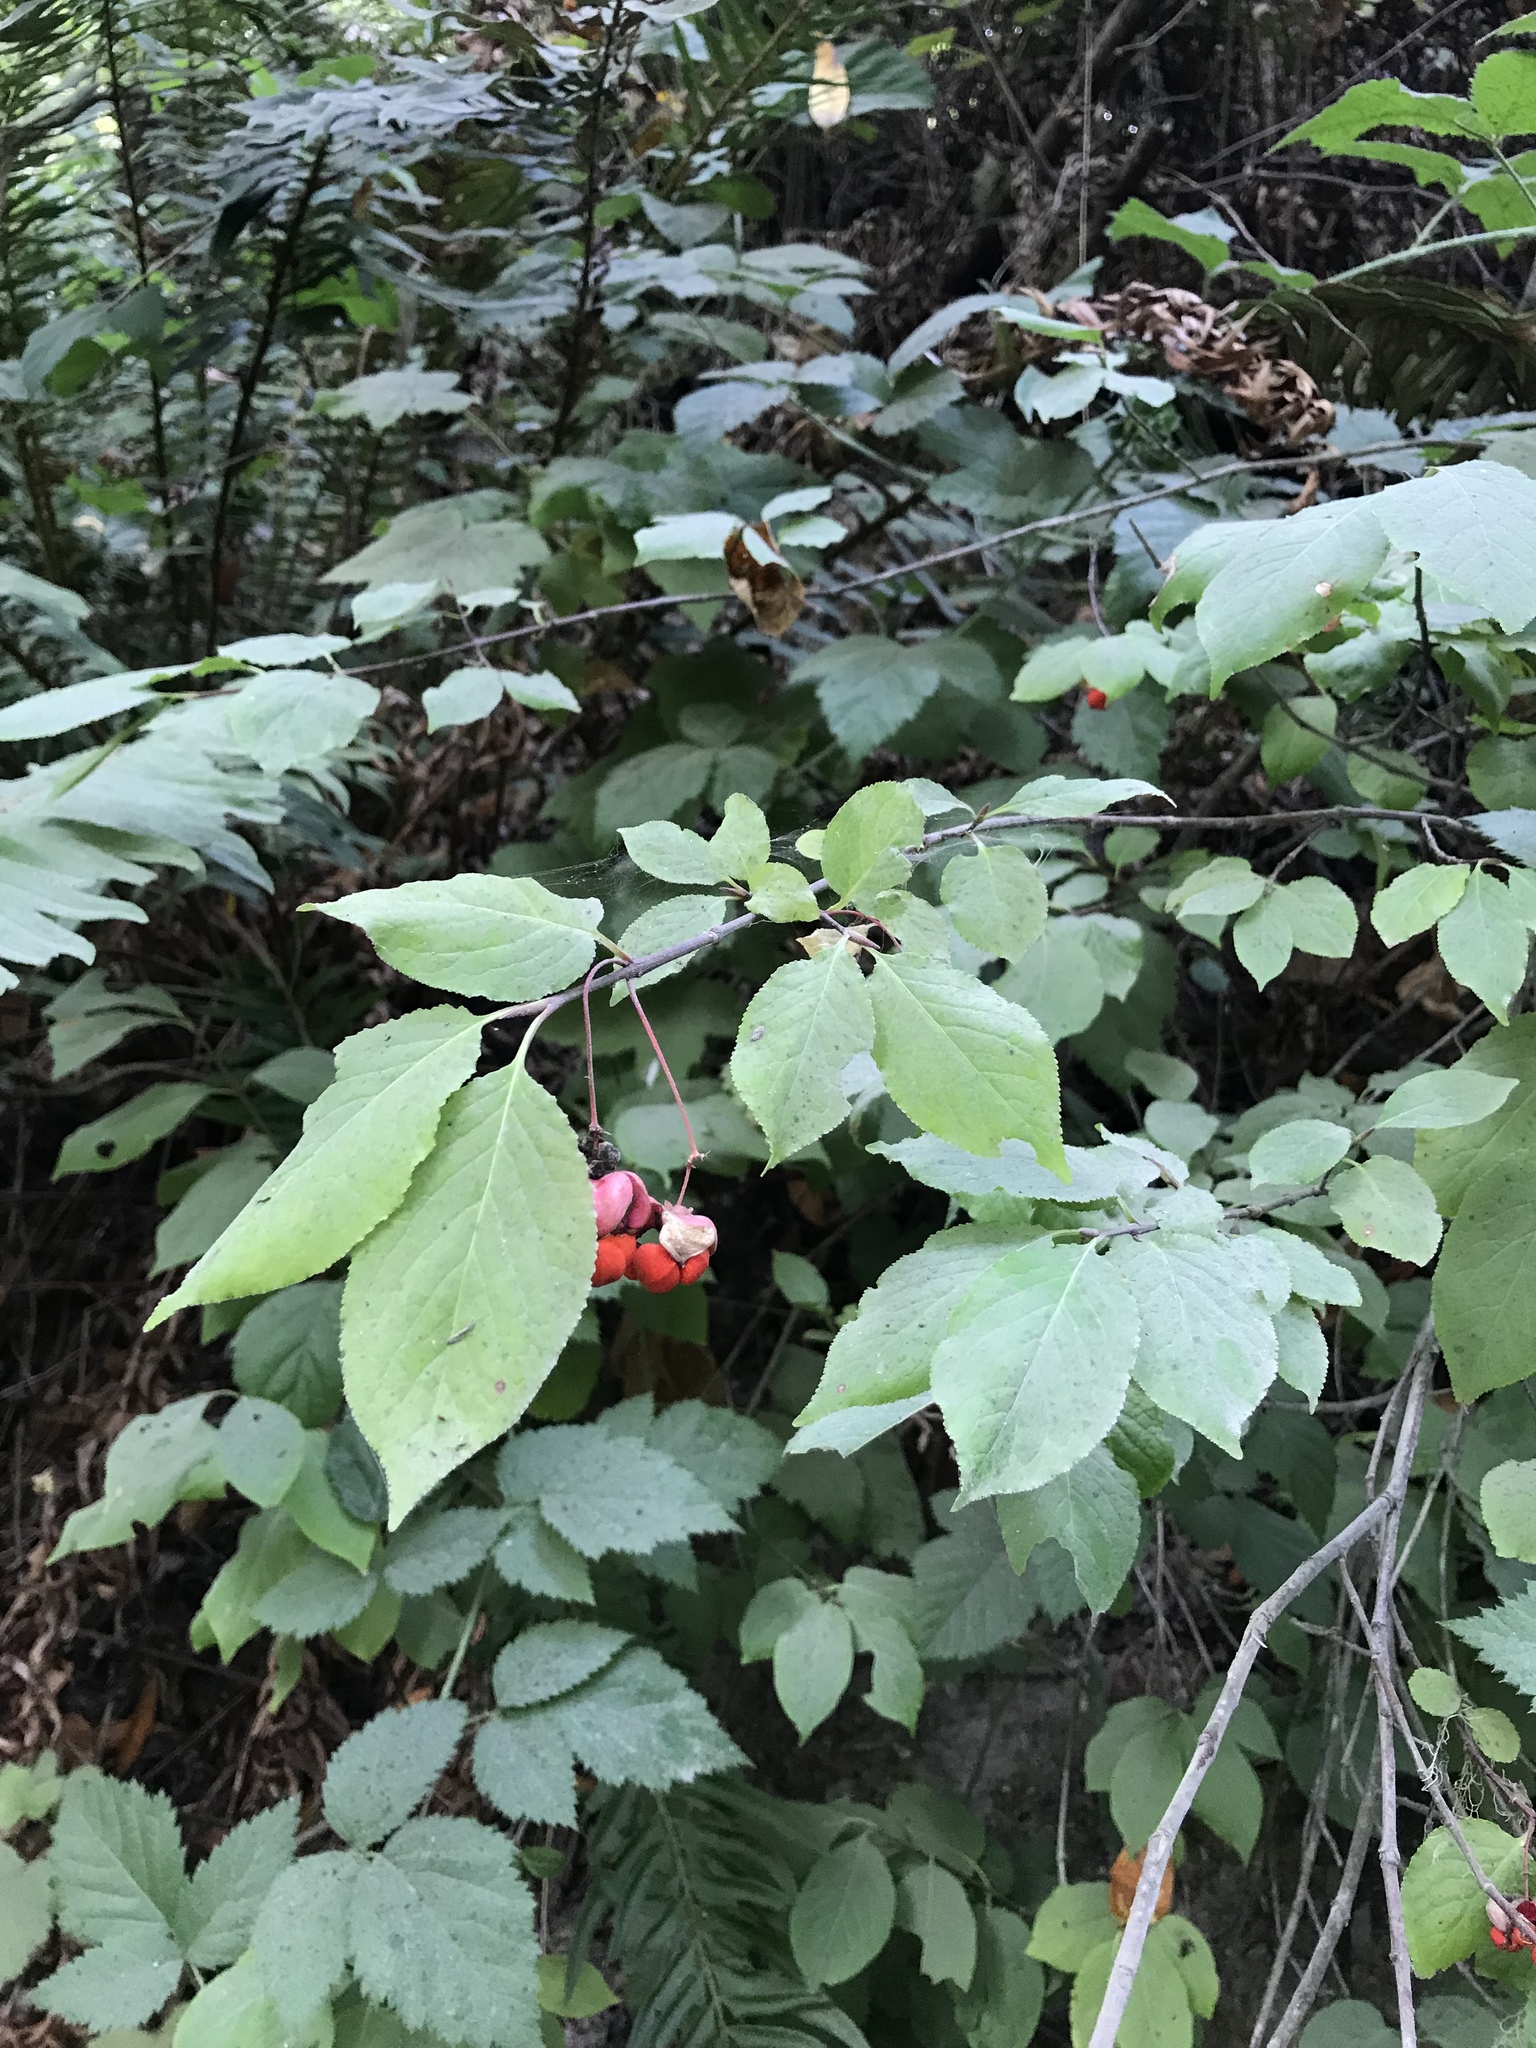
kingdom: Plantae
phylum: Tracheophyta
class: Magnoliopsida
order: Celastrales
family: Celastraceae
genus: Euonymus
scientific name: Euonymus occidentalis
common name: Western burningbush
